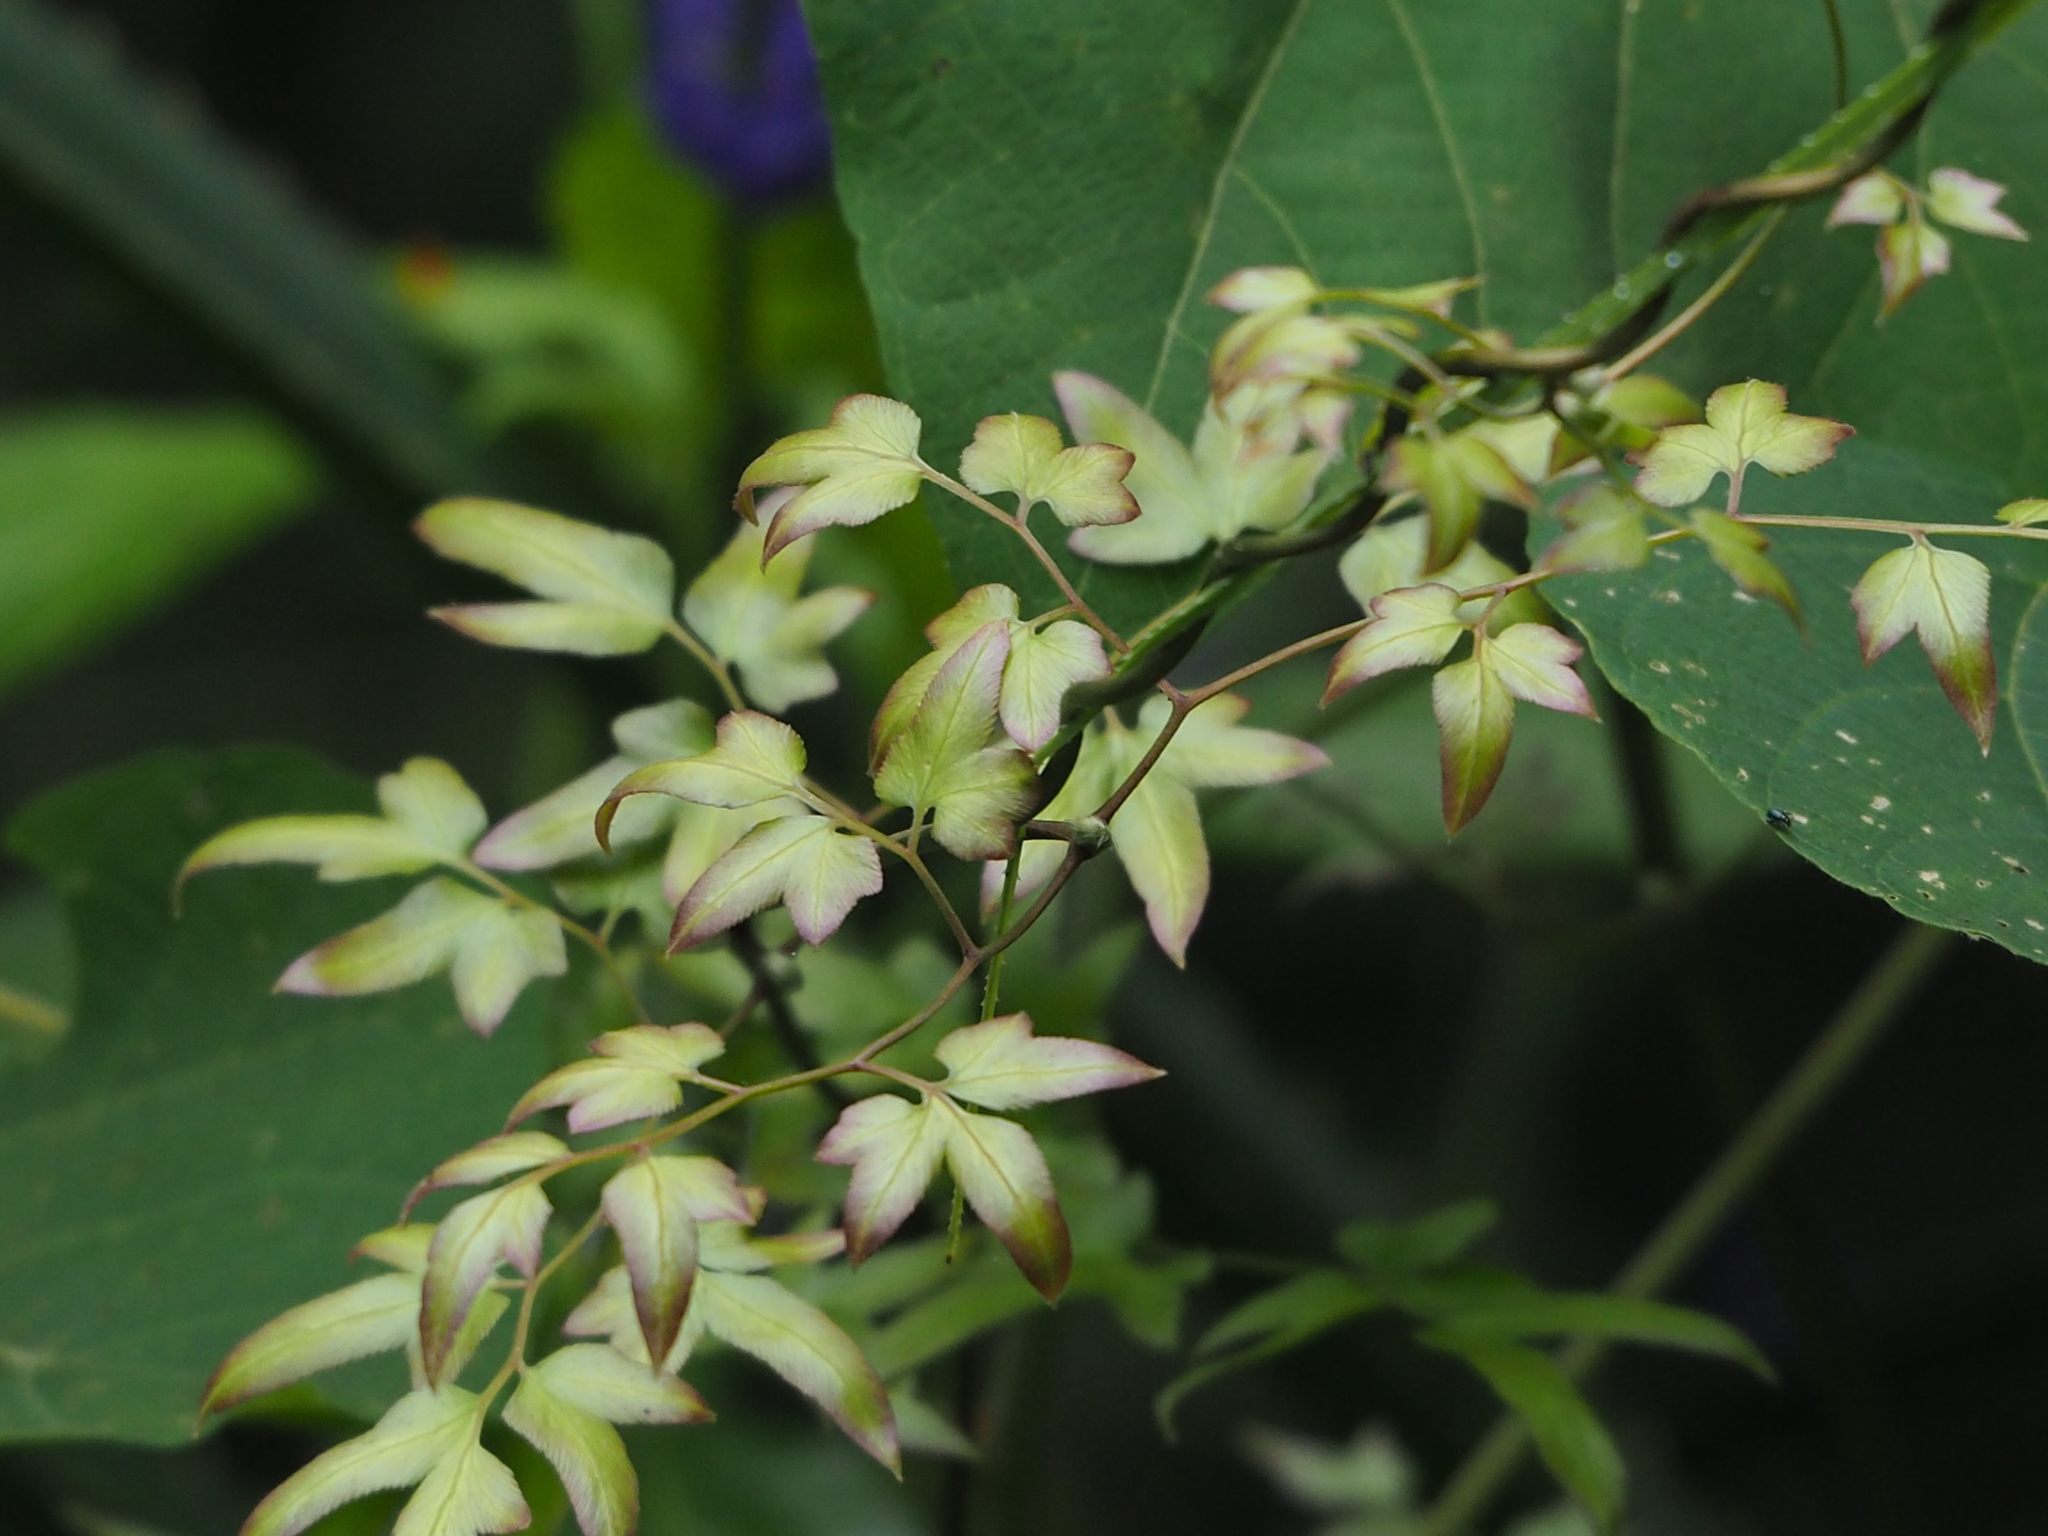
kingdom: Plantae
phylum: Tracheophyta
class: Polypodiopsida
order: Schizaeales
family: Lygodiaceae
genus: Lygodium
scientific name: Lygodium japonicum
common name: Japanese climbing fern
